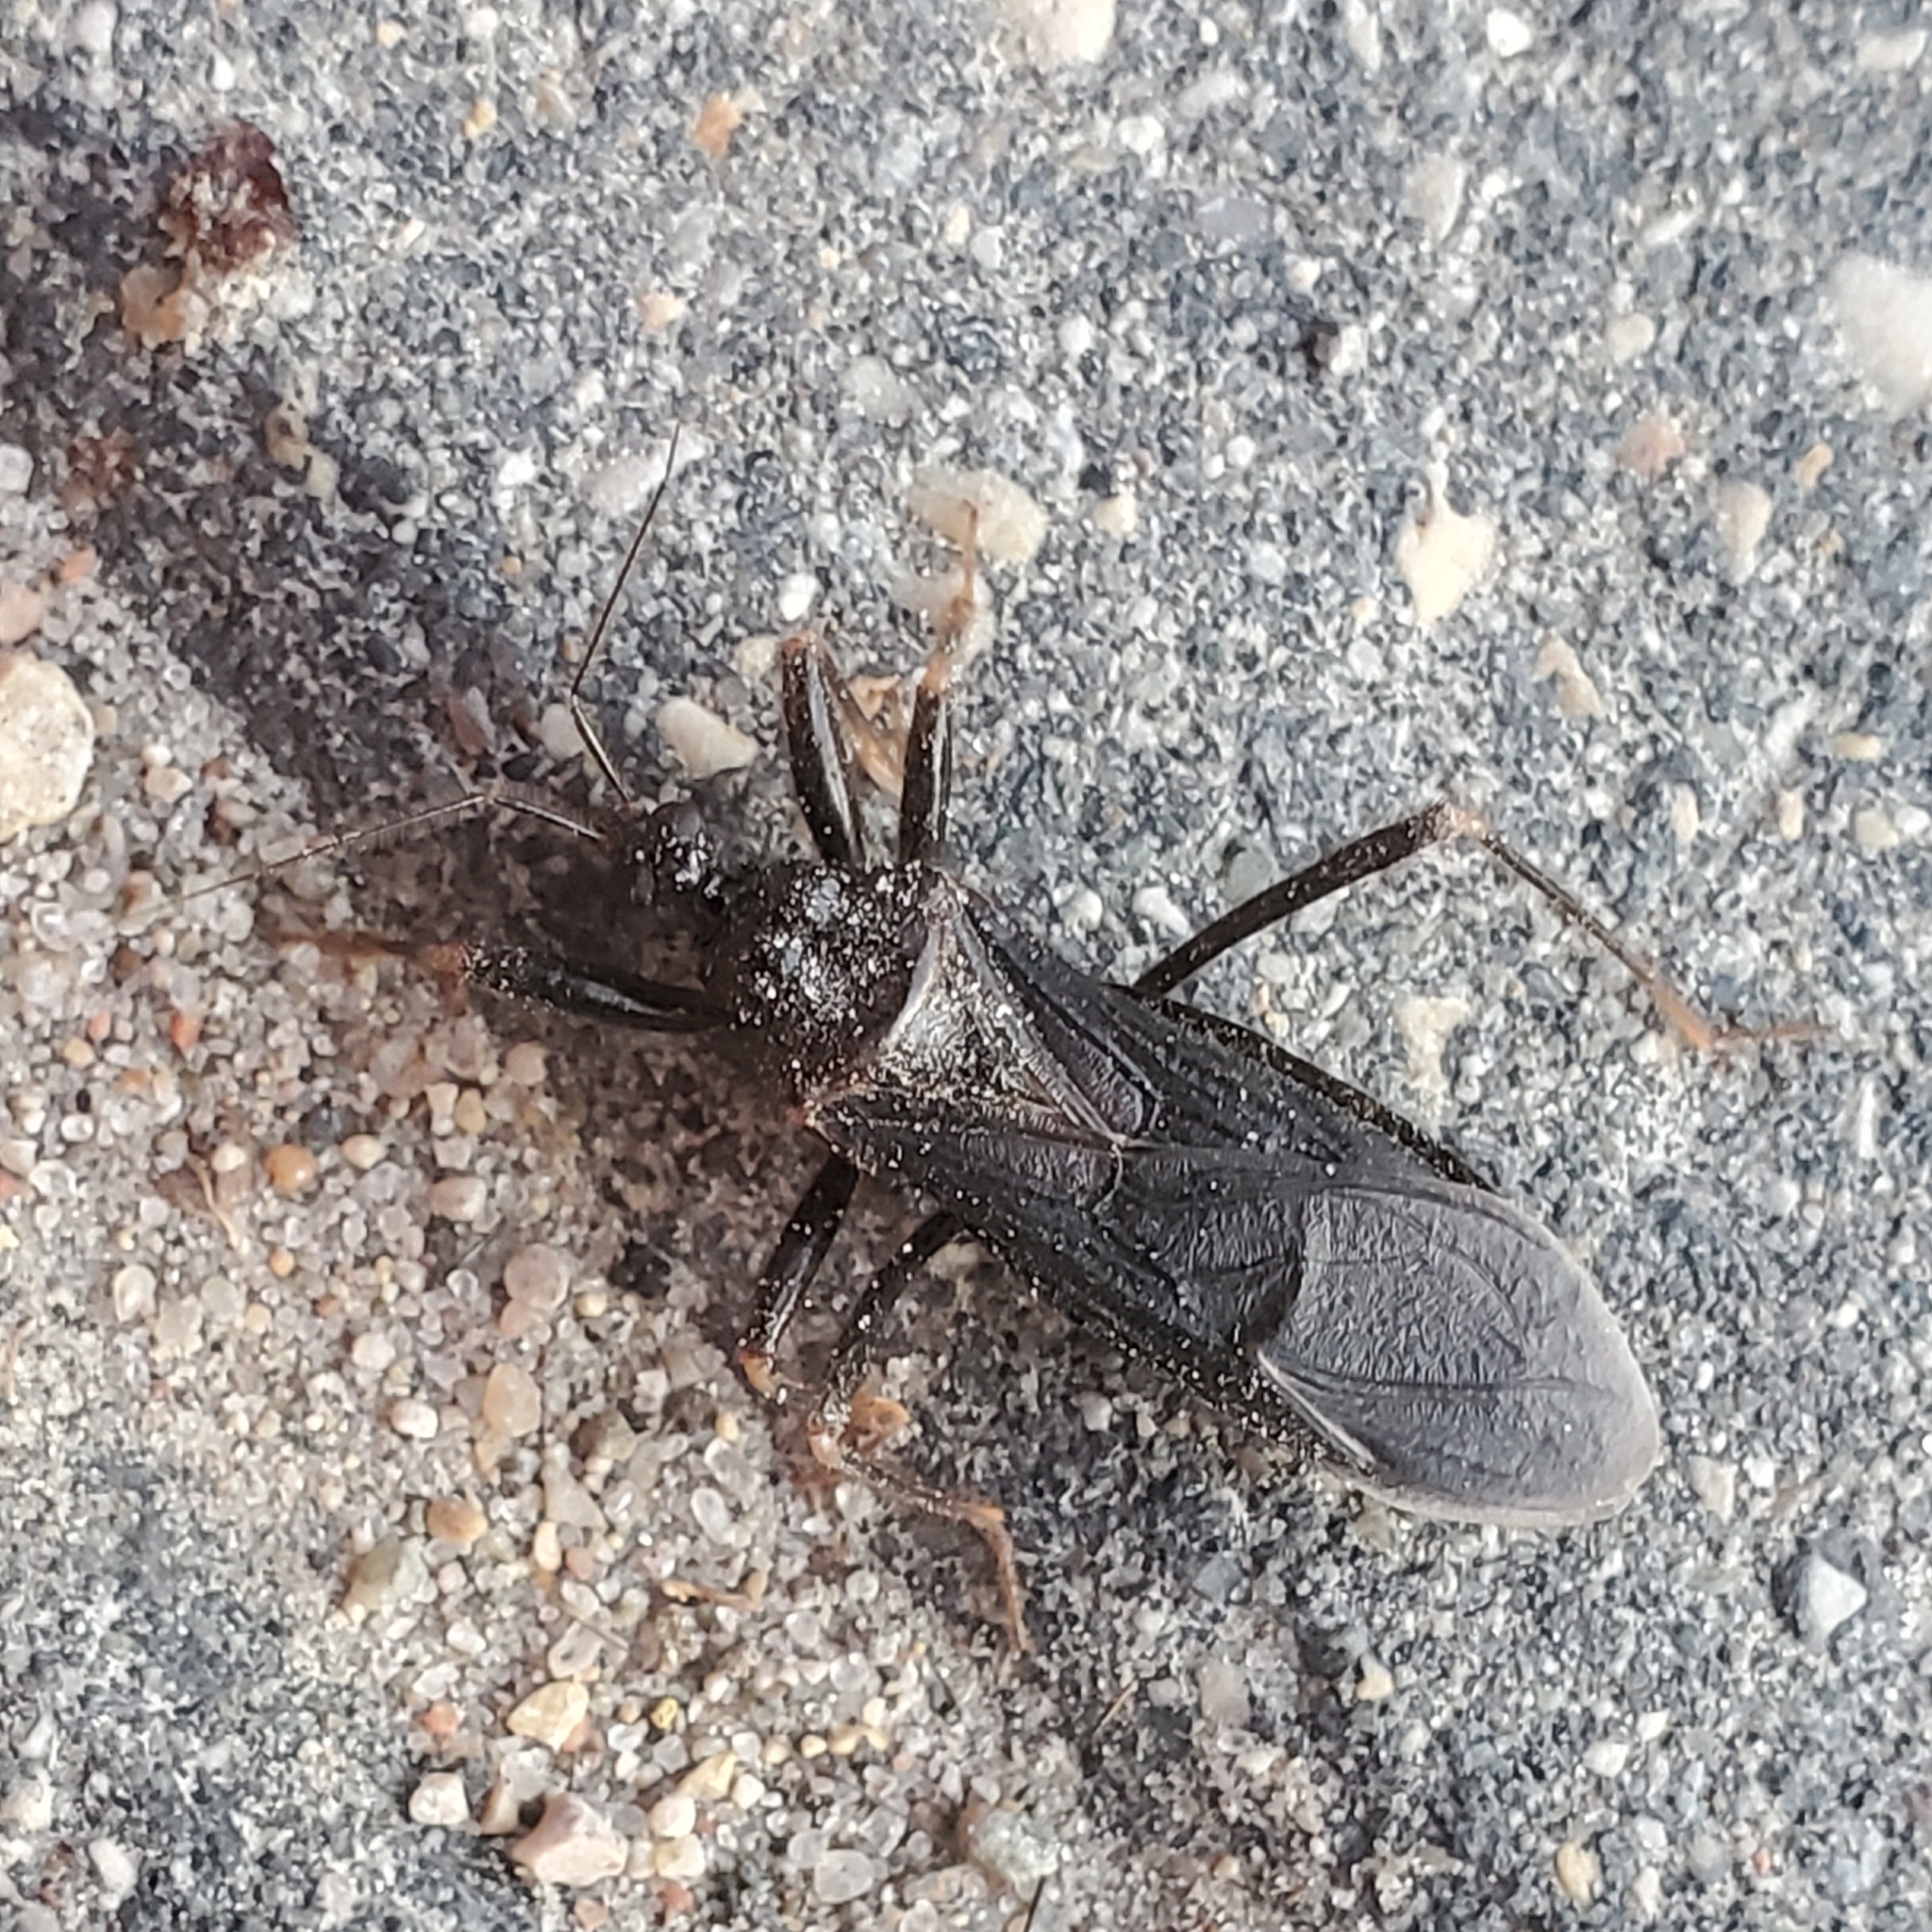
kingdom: Animalia
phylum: Arthropoda
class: Insecta
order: Hemiptera
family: Reduviidae
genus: Reduvius
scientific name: Reduvius personatus
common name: Masked hunter
